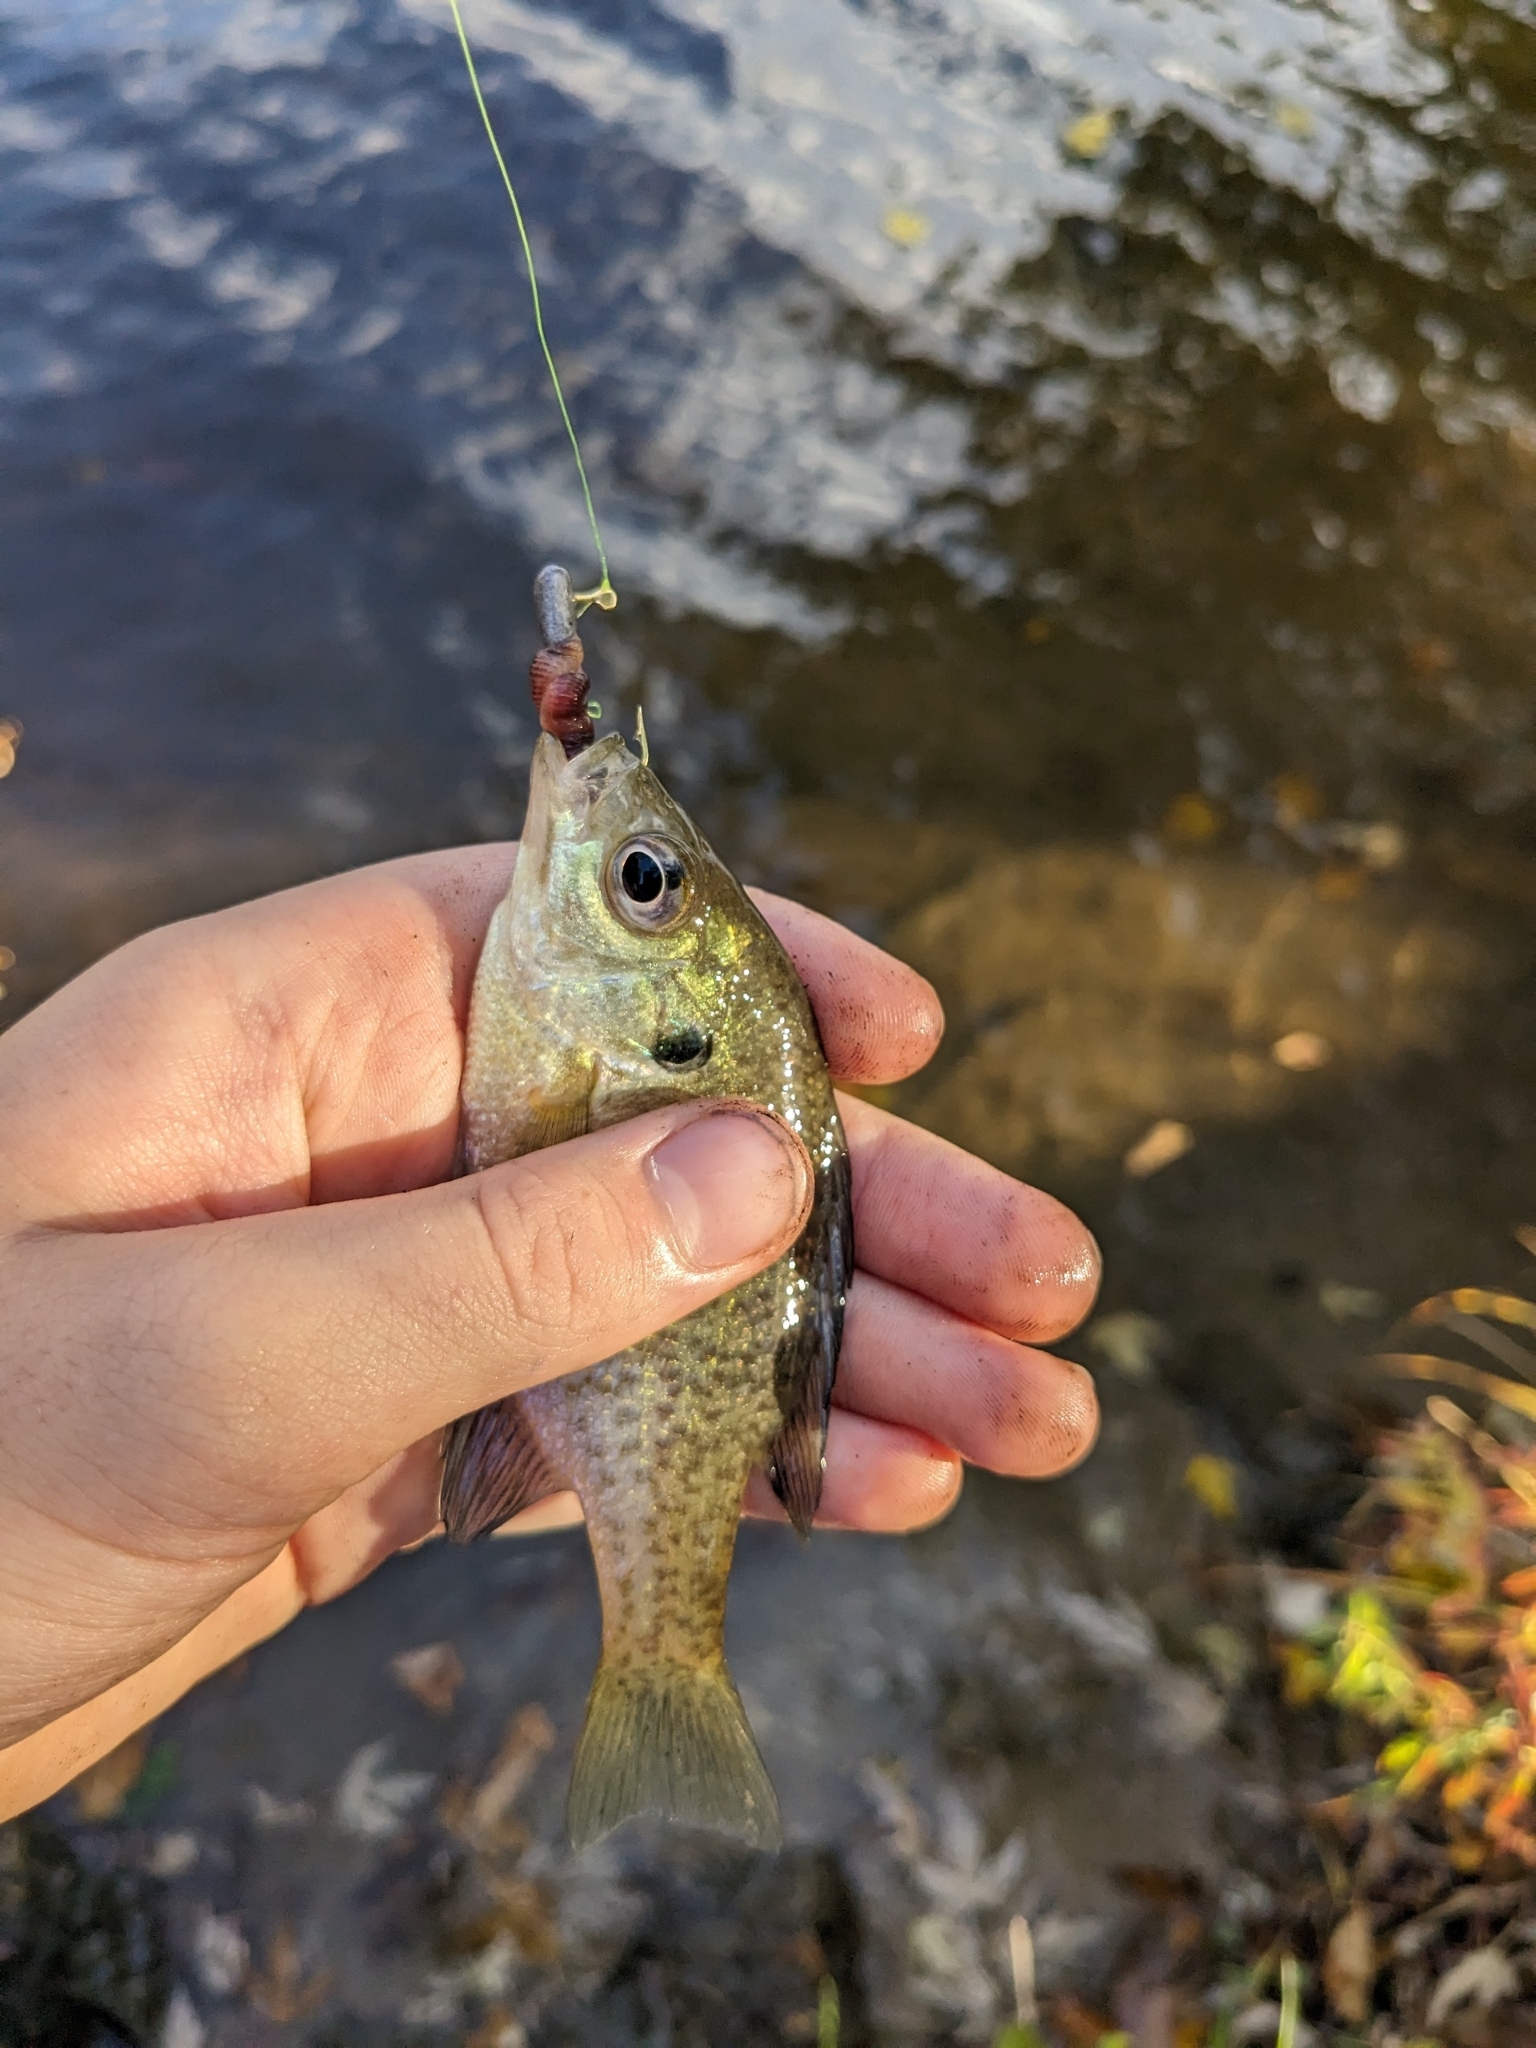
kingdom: Animalia
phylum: Chordata
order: Perciformes
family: Centrarchidae
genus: Lepomis
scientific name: Lepomis macrochirus
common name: Bluegill
